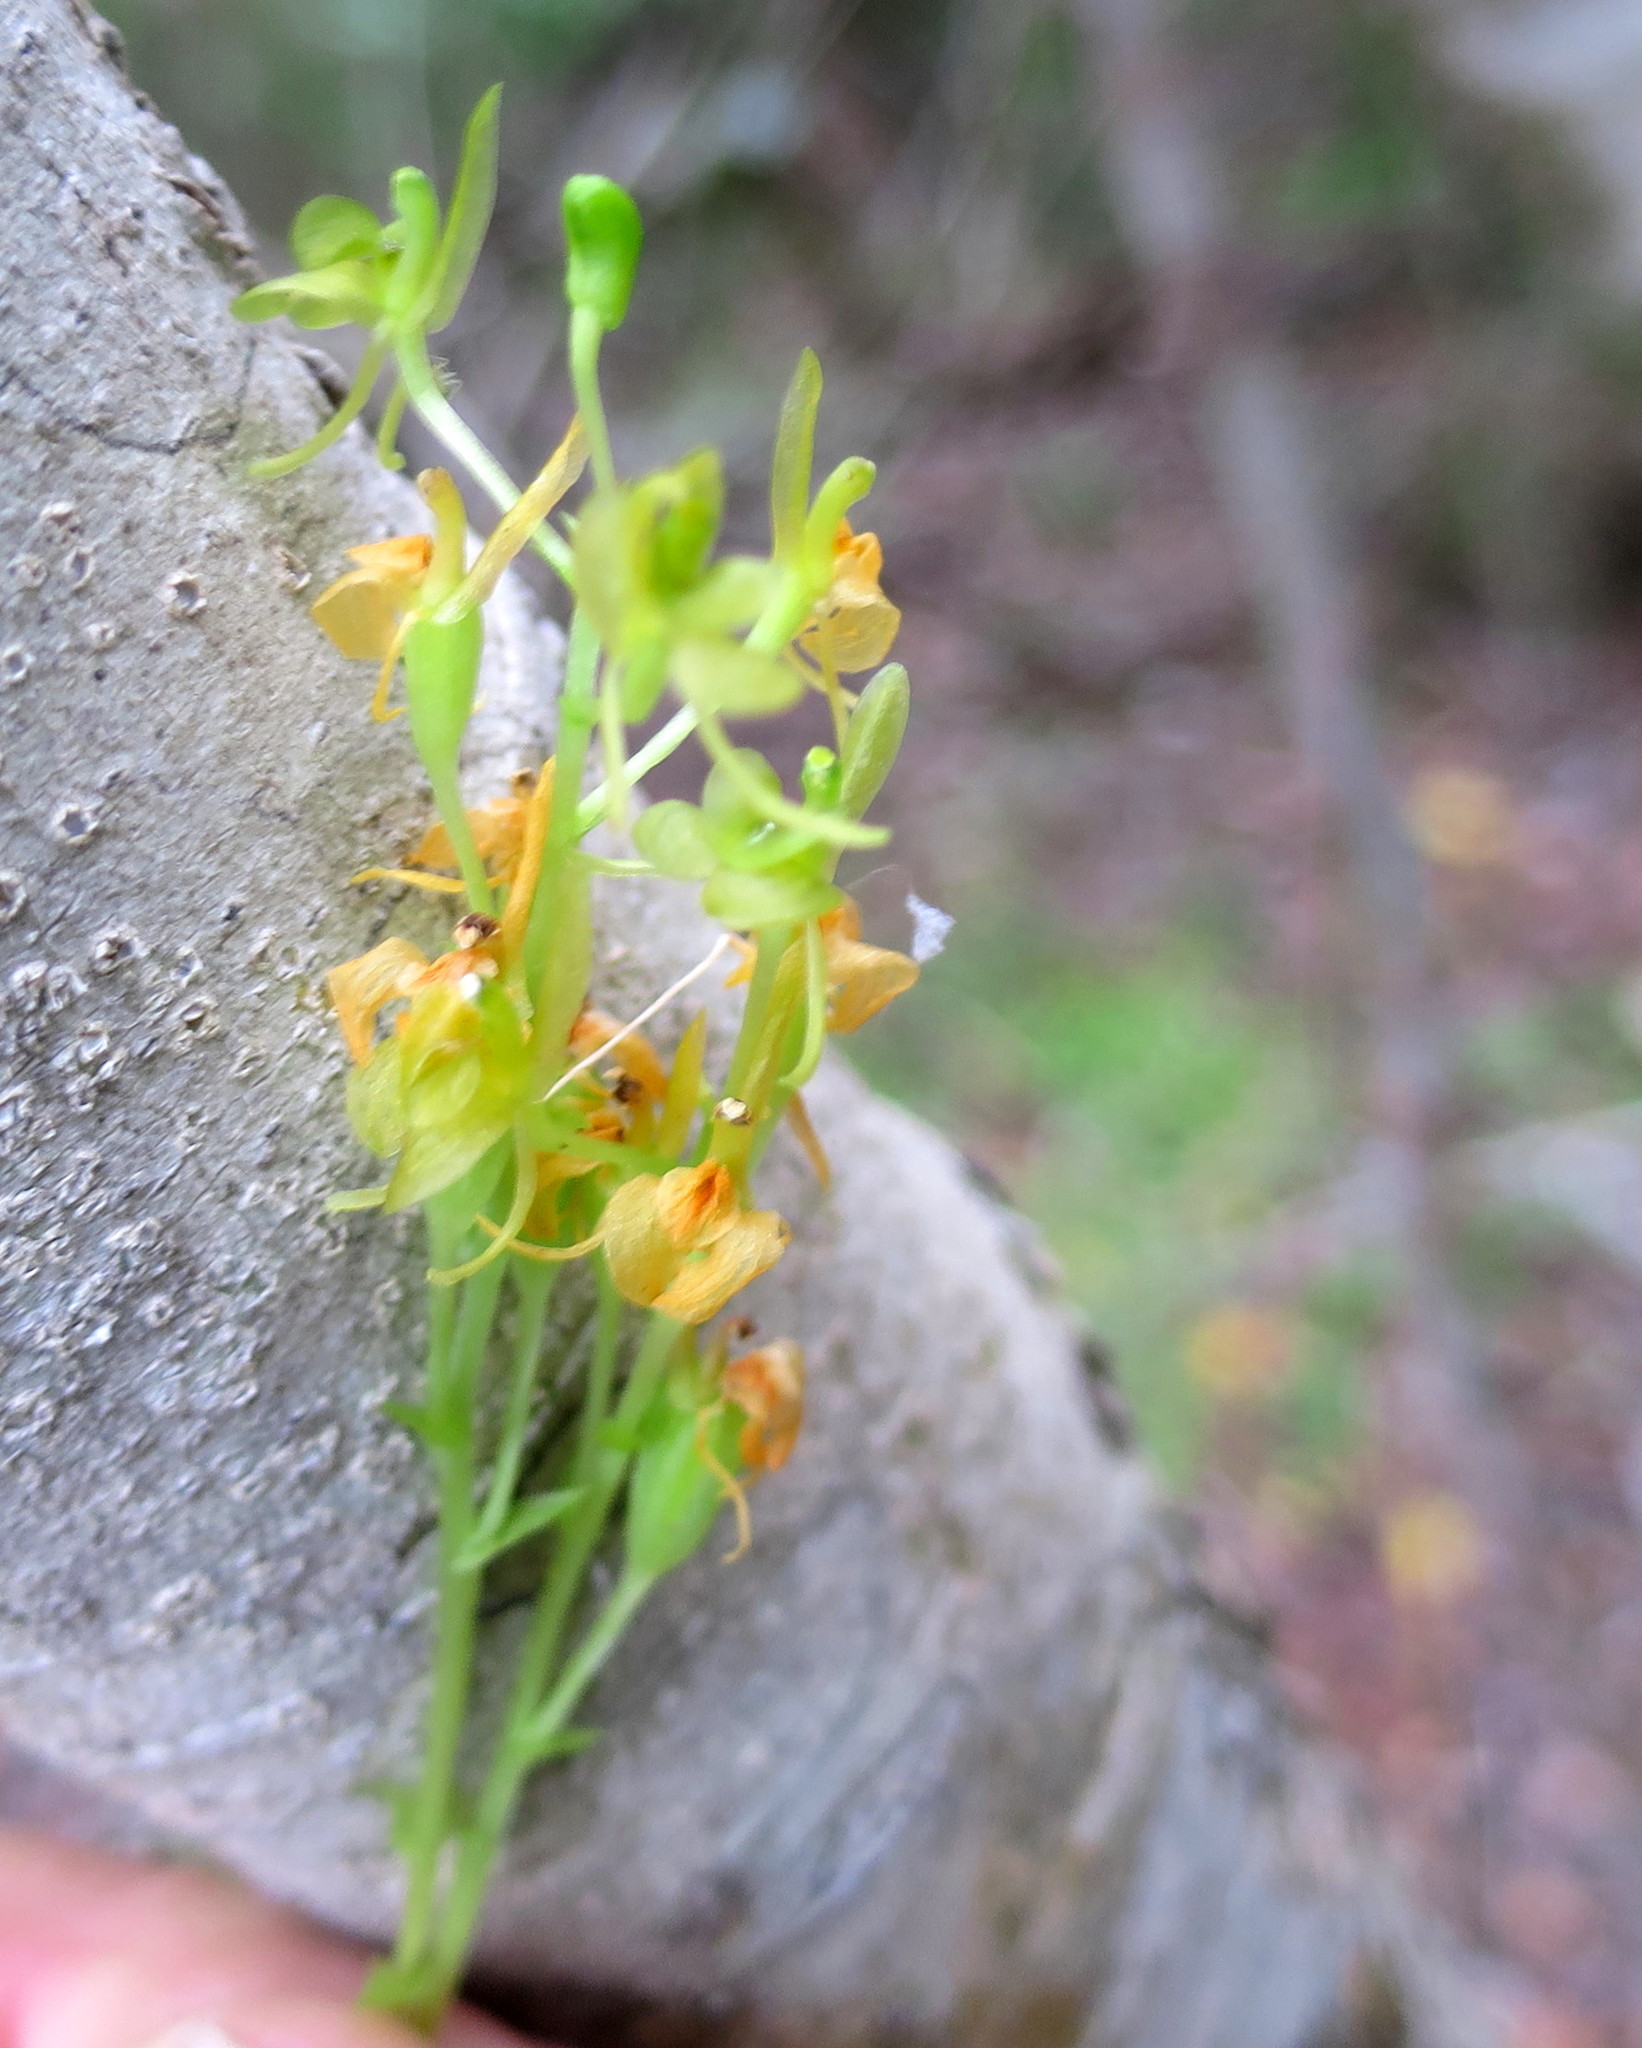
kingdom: Plantae
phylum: Tracheophyta
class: Liliopsida
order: Asparagales
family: Orchidaceae
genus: Liparis
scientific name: Liparis remota
